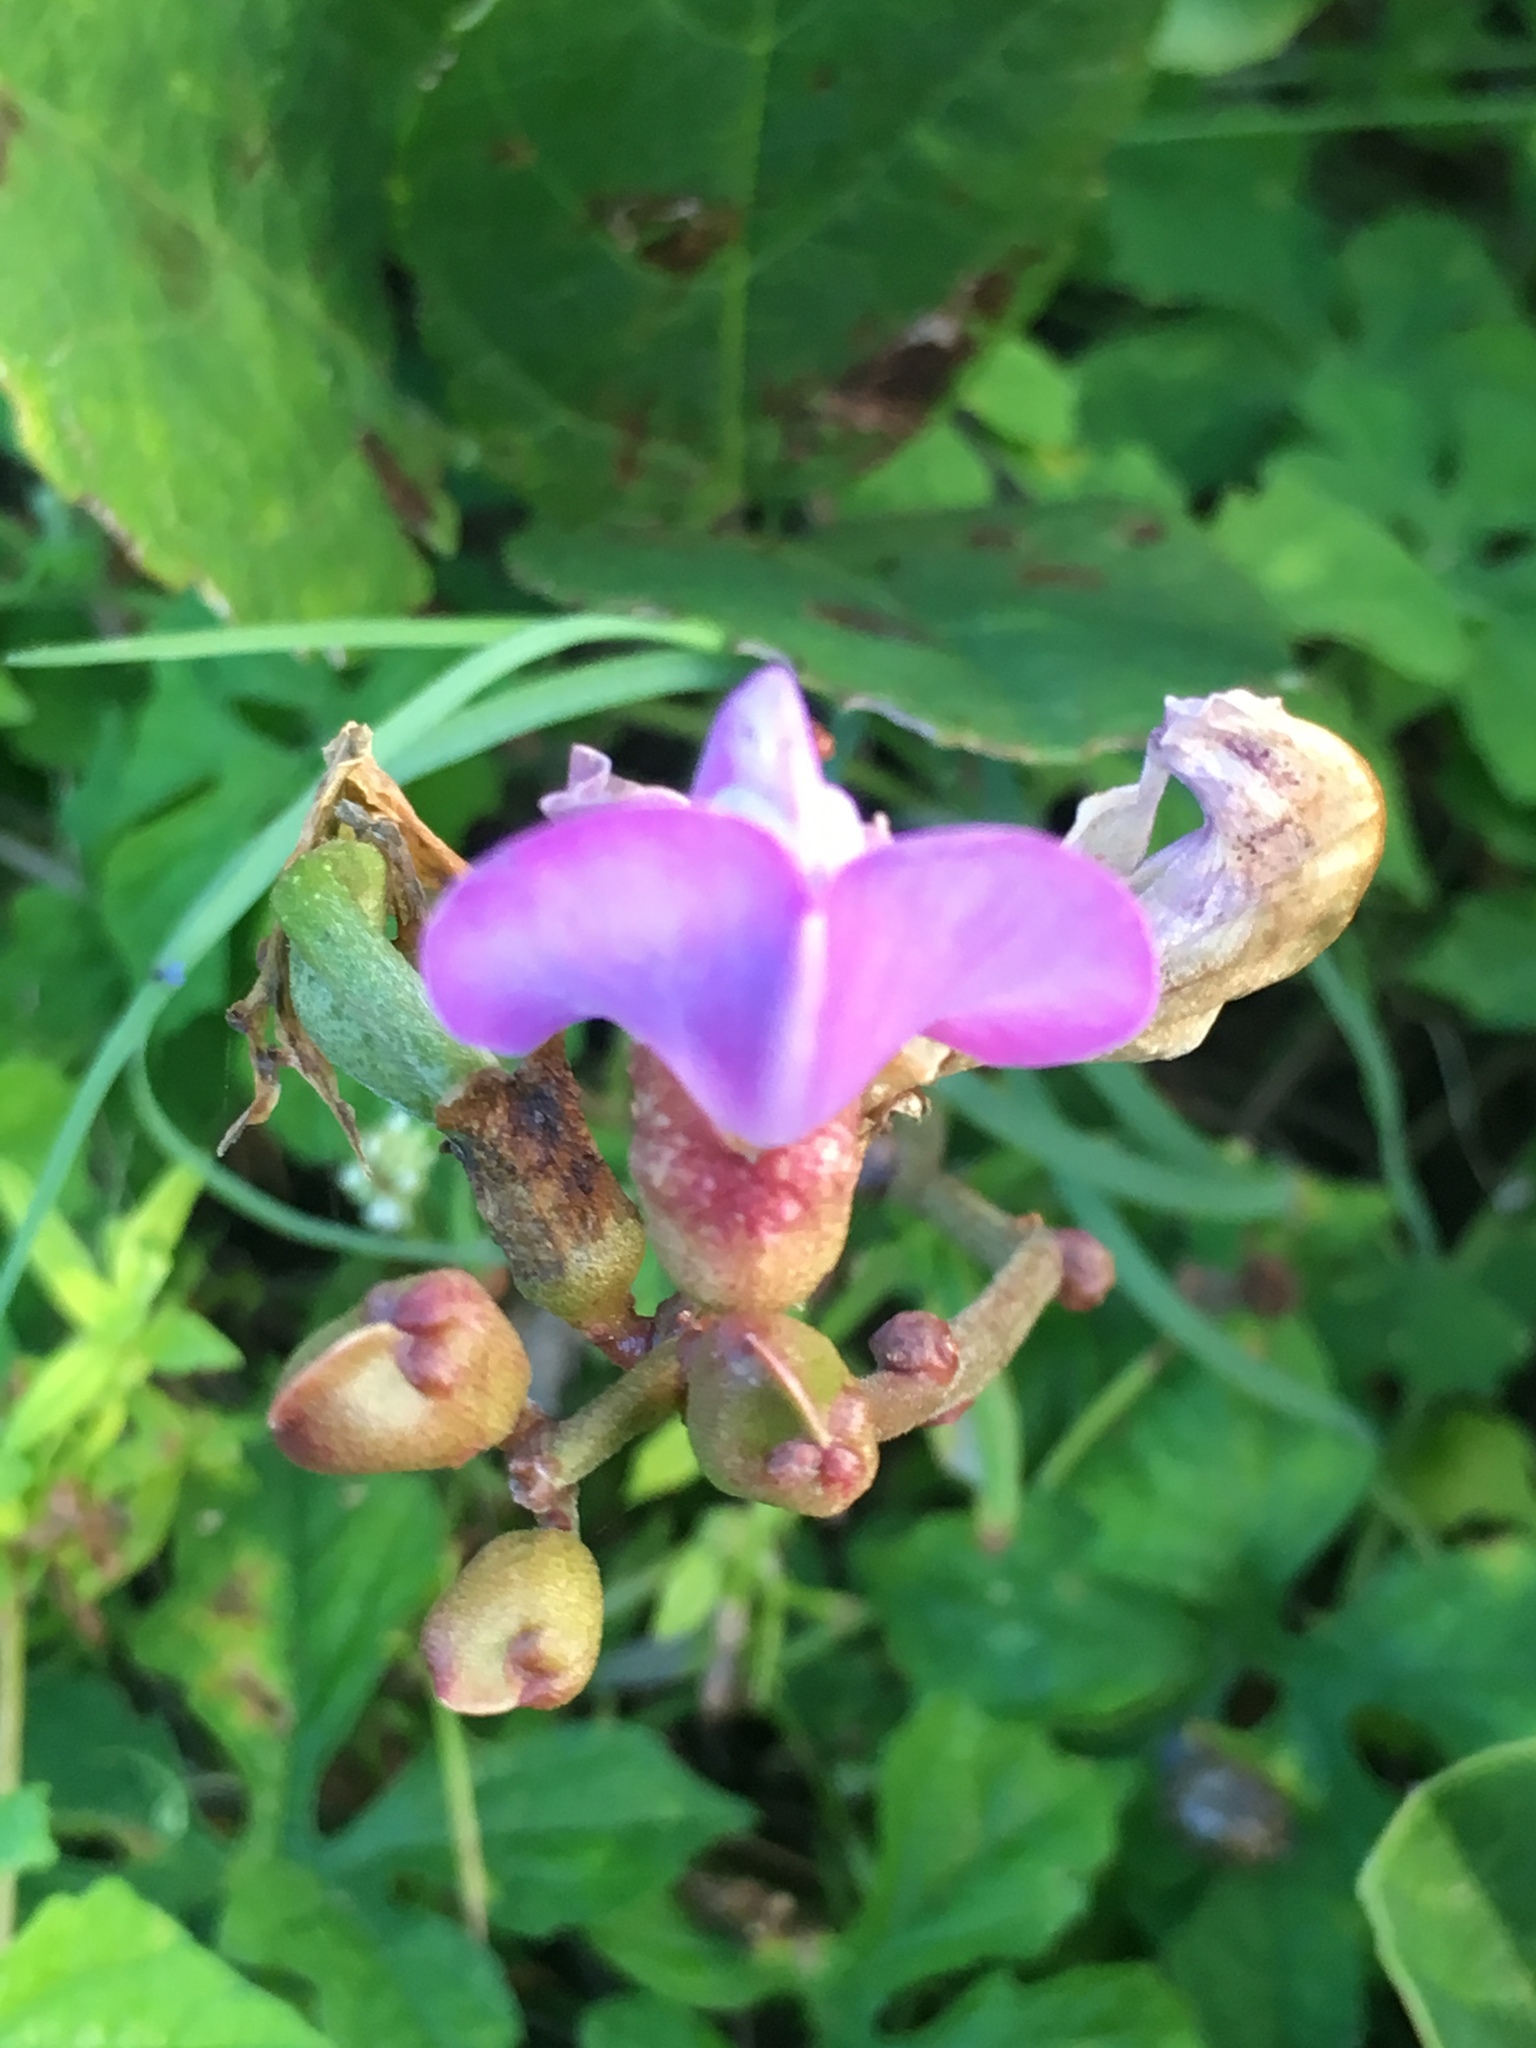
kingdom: Plantae
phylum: Tracheophyta
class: Magnoliopsida
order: Fabales
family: Fabaceae
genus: Canavalia
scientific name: Canavalia rosea
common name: Beach-bean
